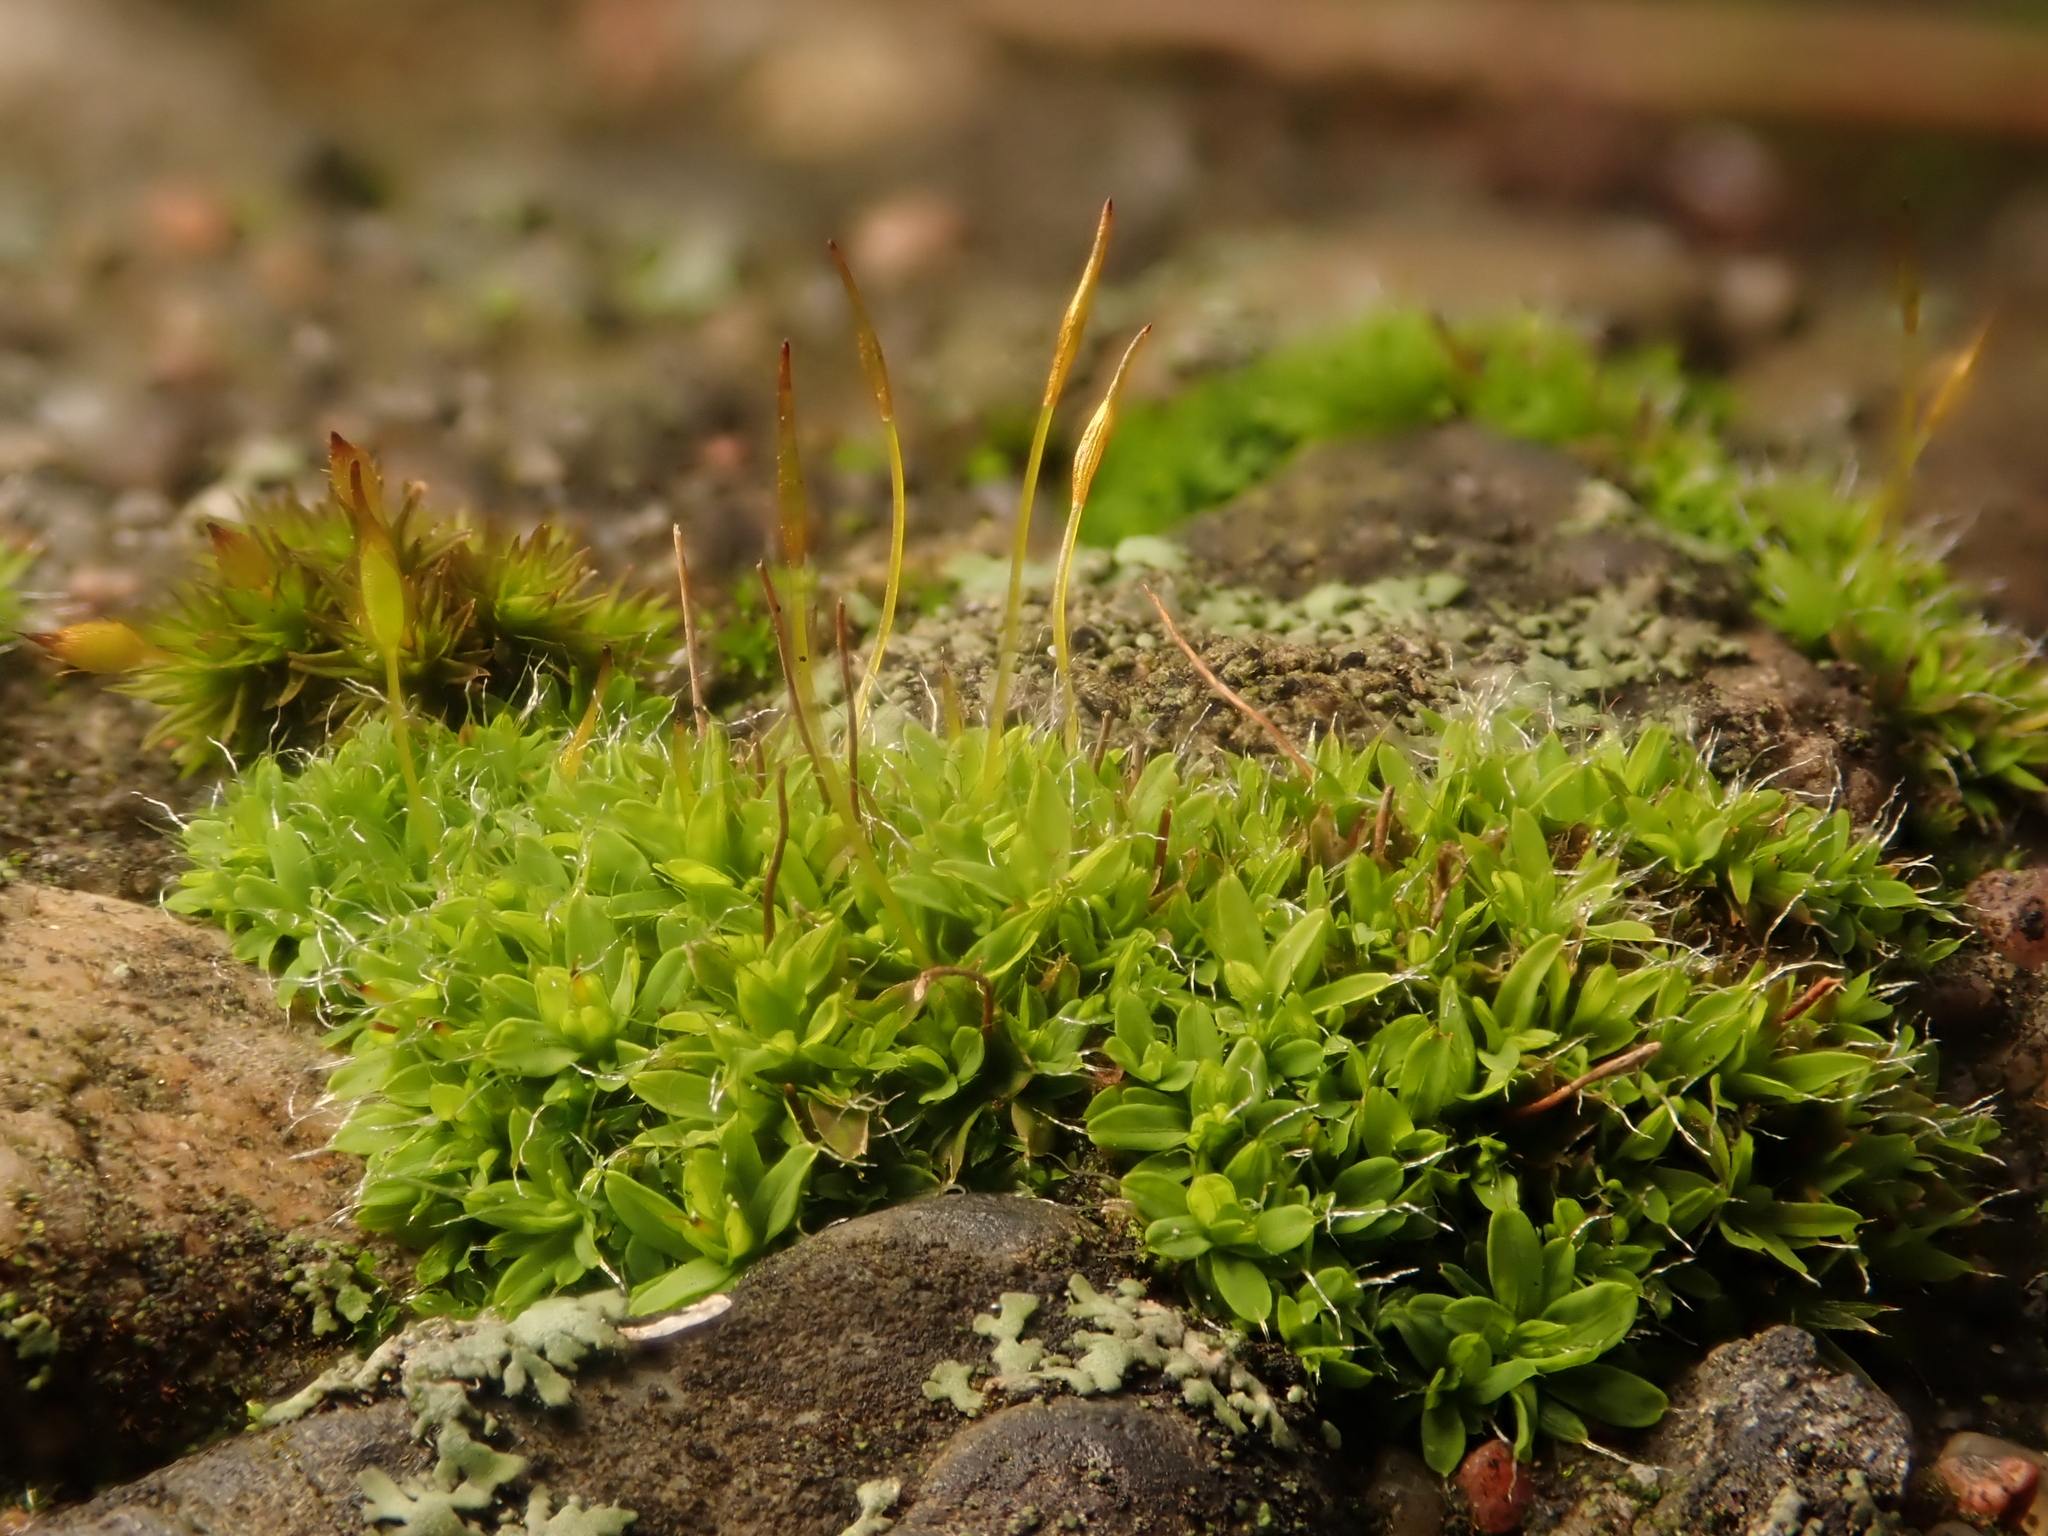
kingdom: Plantae
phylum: Bryophyta
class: Bryopsida
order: Pottiales
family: Pottiaceae
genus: Tortula
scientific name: Tortula muralis
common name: Wall screw-moss
